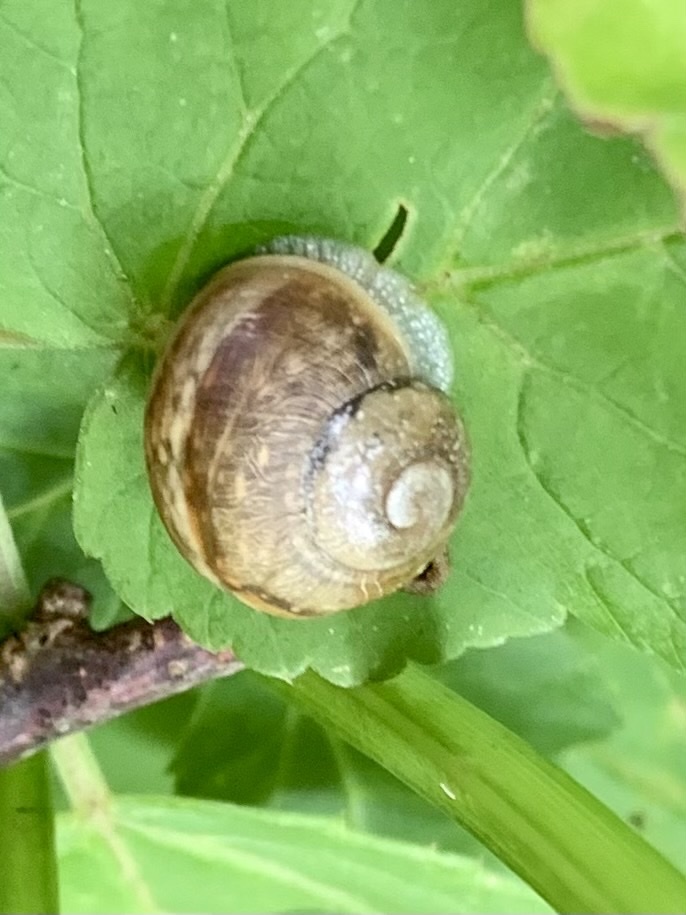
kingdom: Animalia
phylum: Mollusca
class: Gastropoda
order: Stylommatophora
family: Helicidae
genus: Helix
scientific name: Helix pomatia
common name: Roman snail
